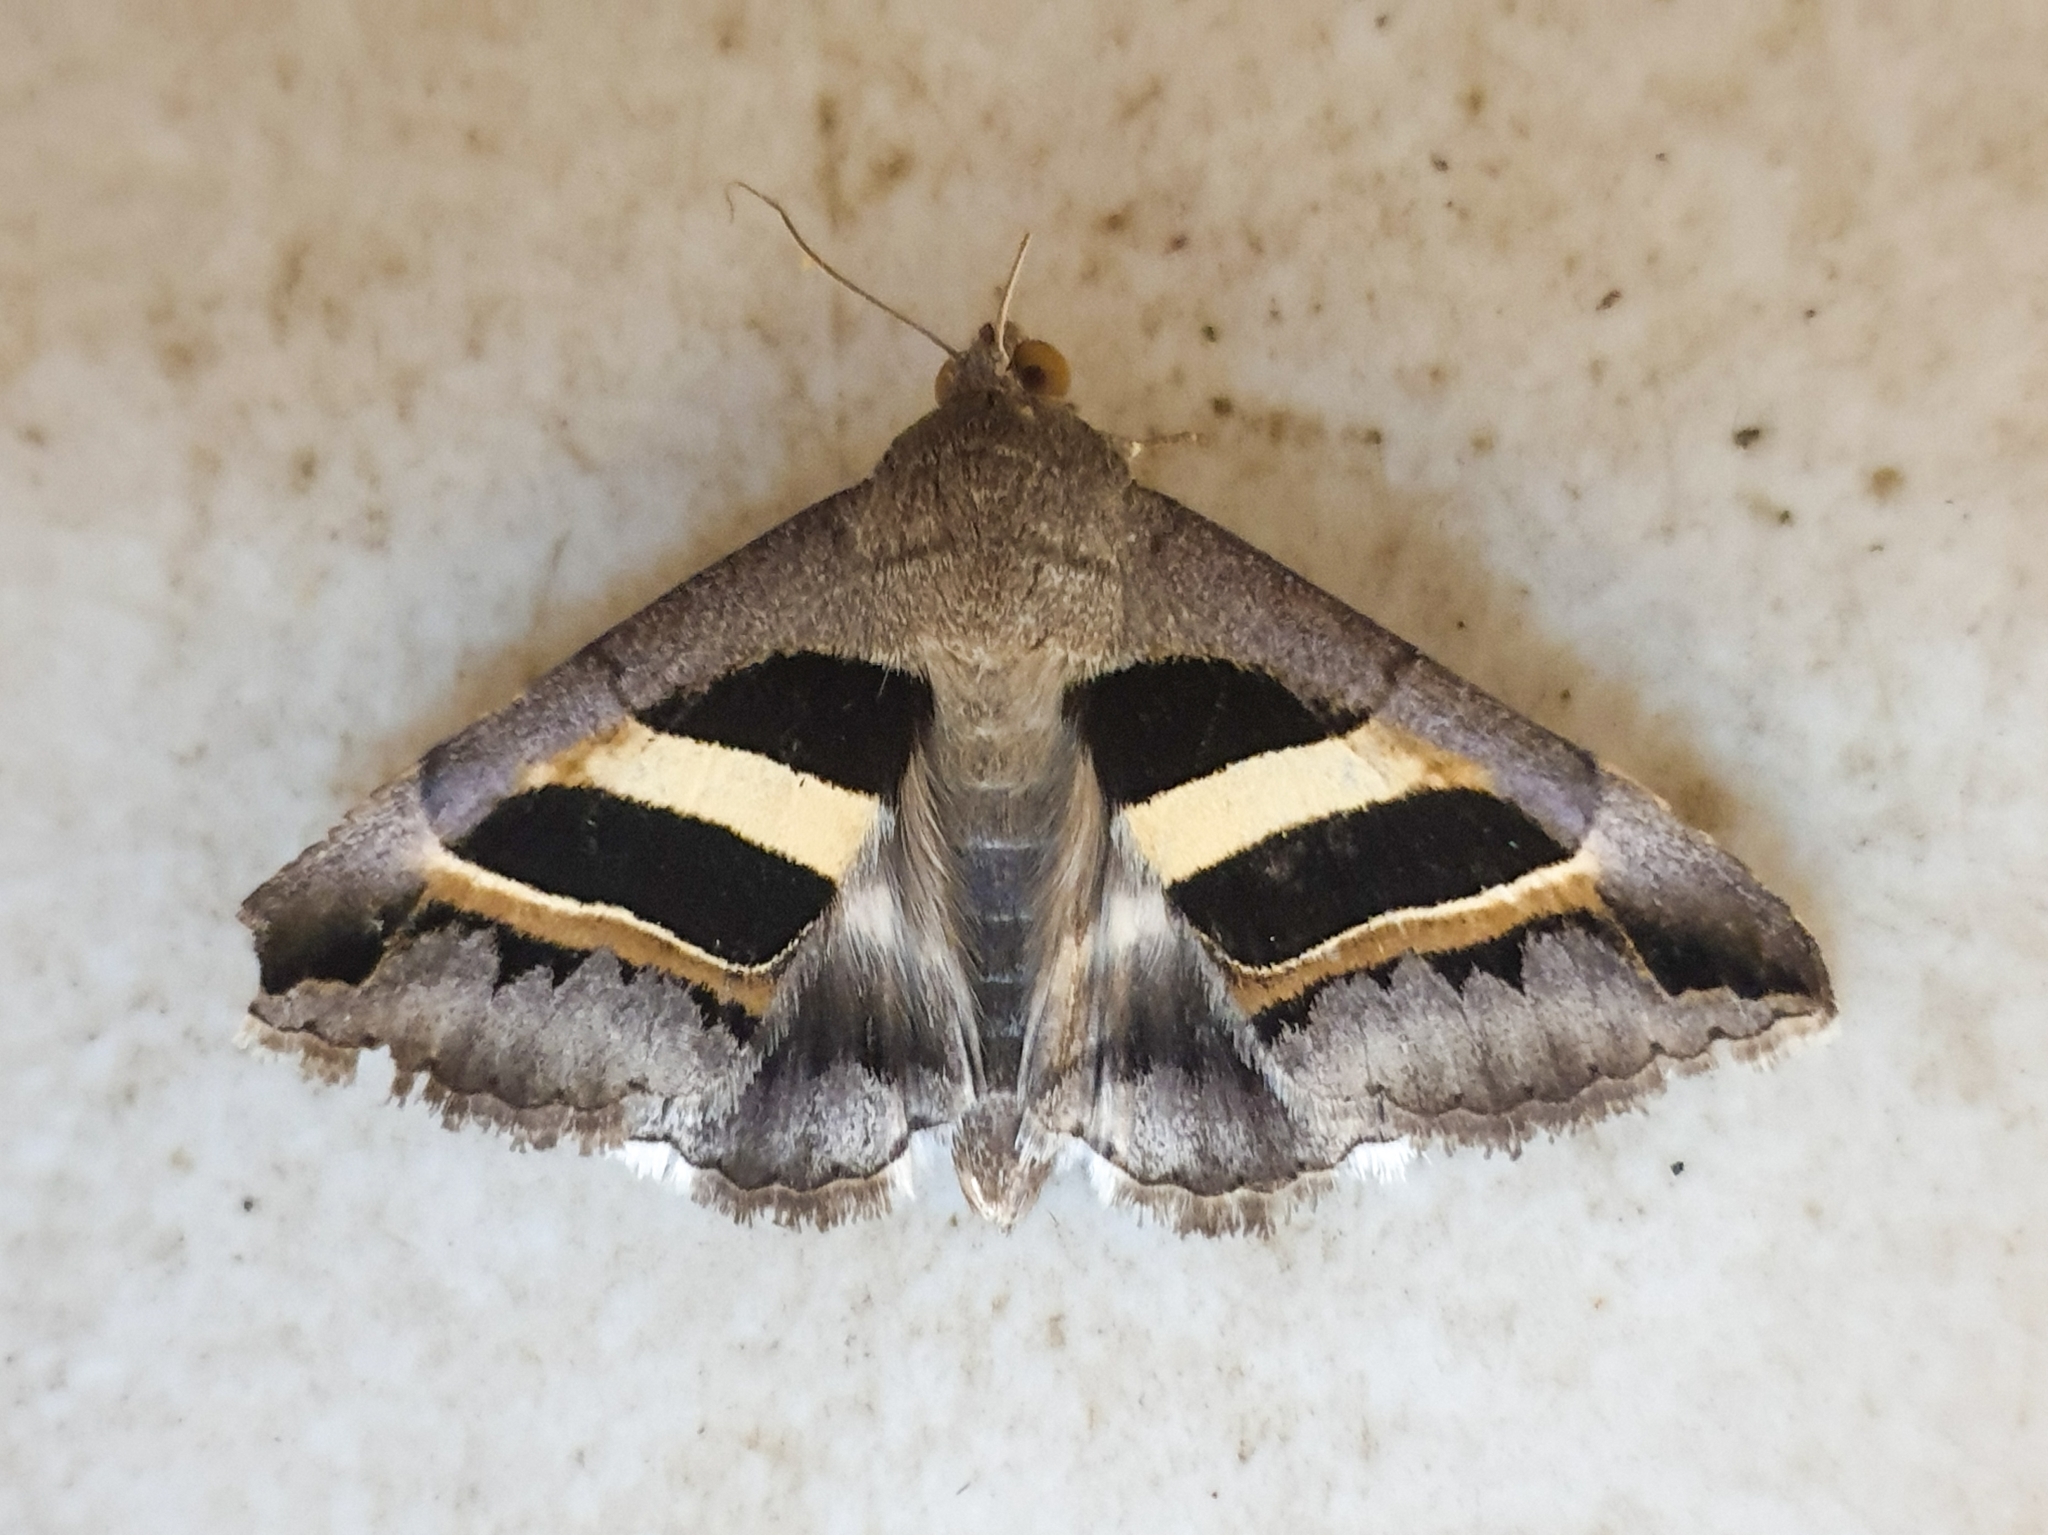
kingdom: Animalia
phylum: Arthropoda
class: Insecta
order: Lepidoptera
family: Erebidae
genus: Grammodes
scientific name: Grammodes geometrica
